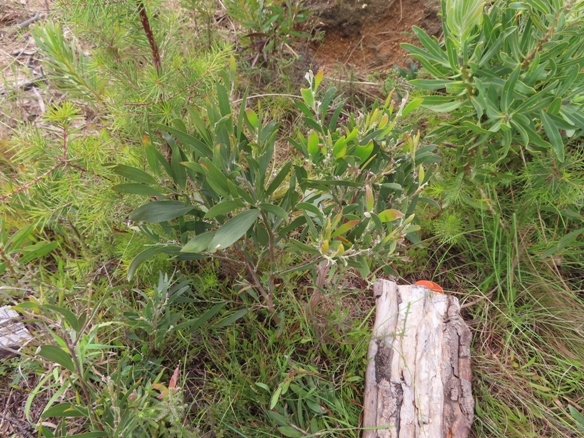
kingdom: Plantae
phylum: Tracheophyta
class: Magnoliopsida
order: Fabales
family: Fabaceae
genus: Acacia
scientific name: Acacia melanoxylon
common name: Blackwood
